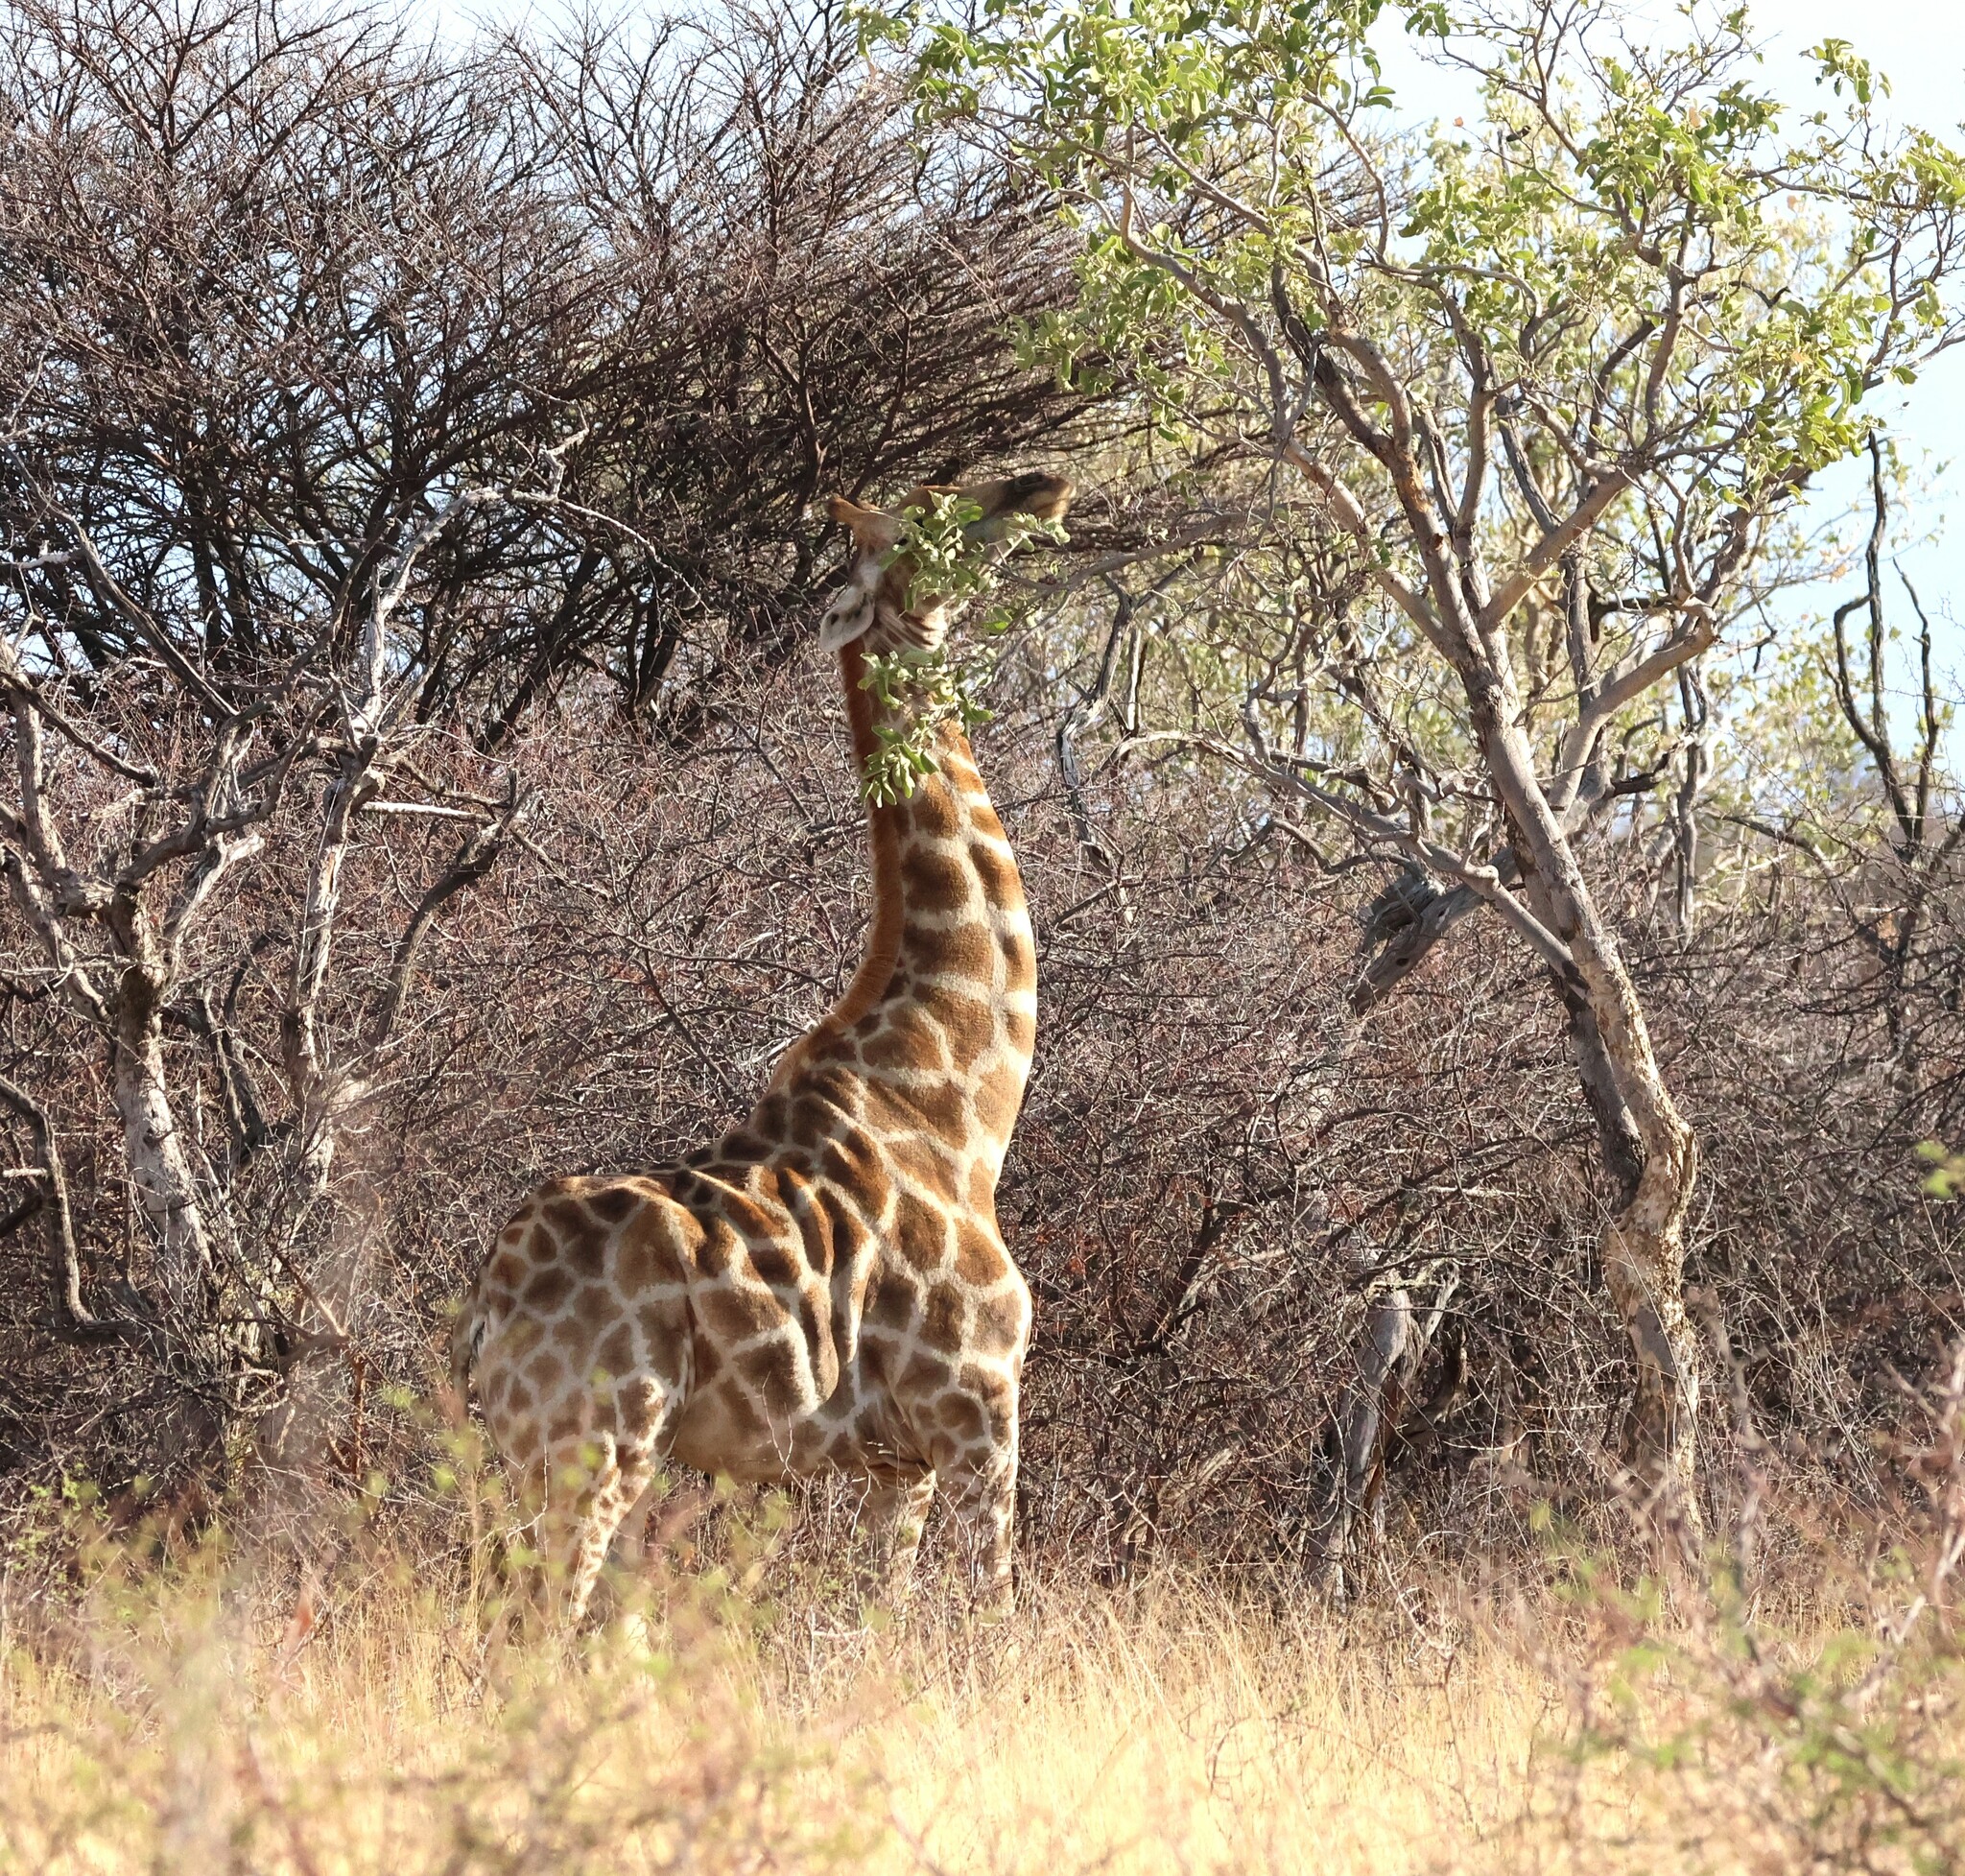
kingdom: Animalia
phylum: Chordata
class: Mammalia
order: Artiodactyla
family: Giraffidae
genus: Giraffa
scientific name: Giraffa giraffa
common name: Southern giraffe
